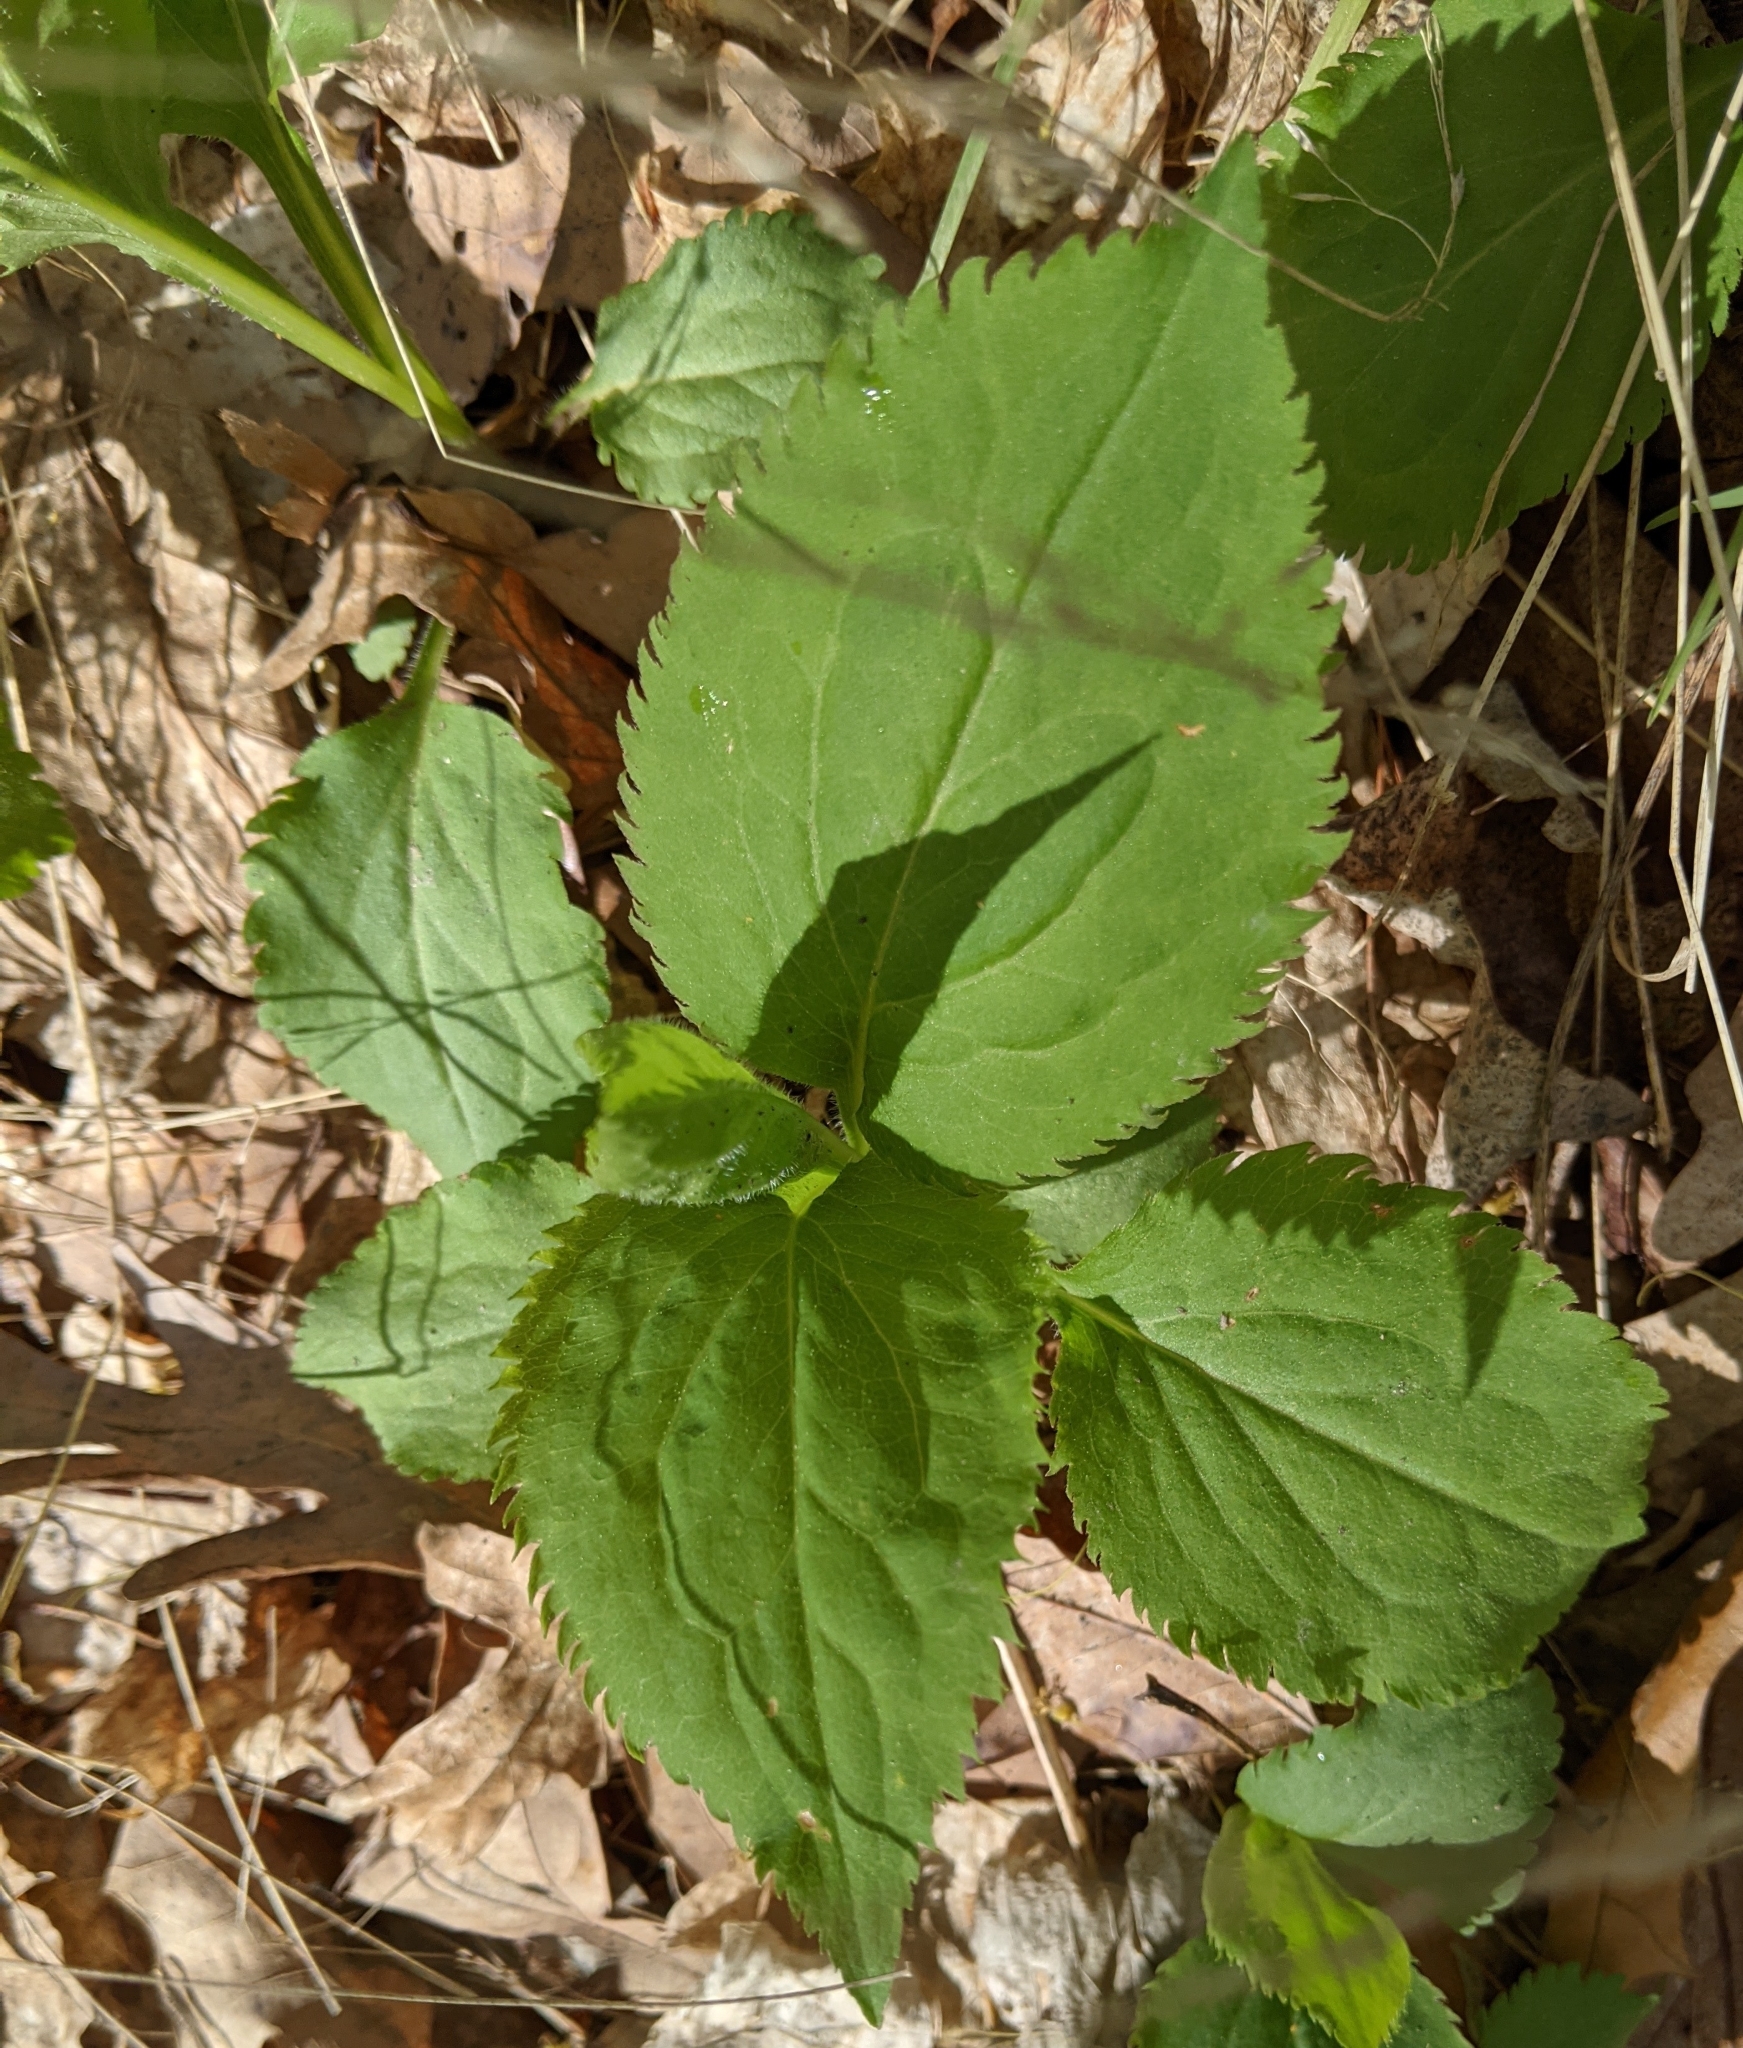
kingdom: Plantae
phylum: Tracheophyta
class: Magnoliopsida
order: Asterales
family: Asteraceae
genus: Solidago
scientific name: Solidago flexicaulis
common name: Zig-zag goldenrod
